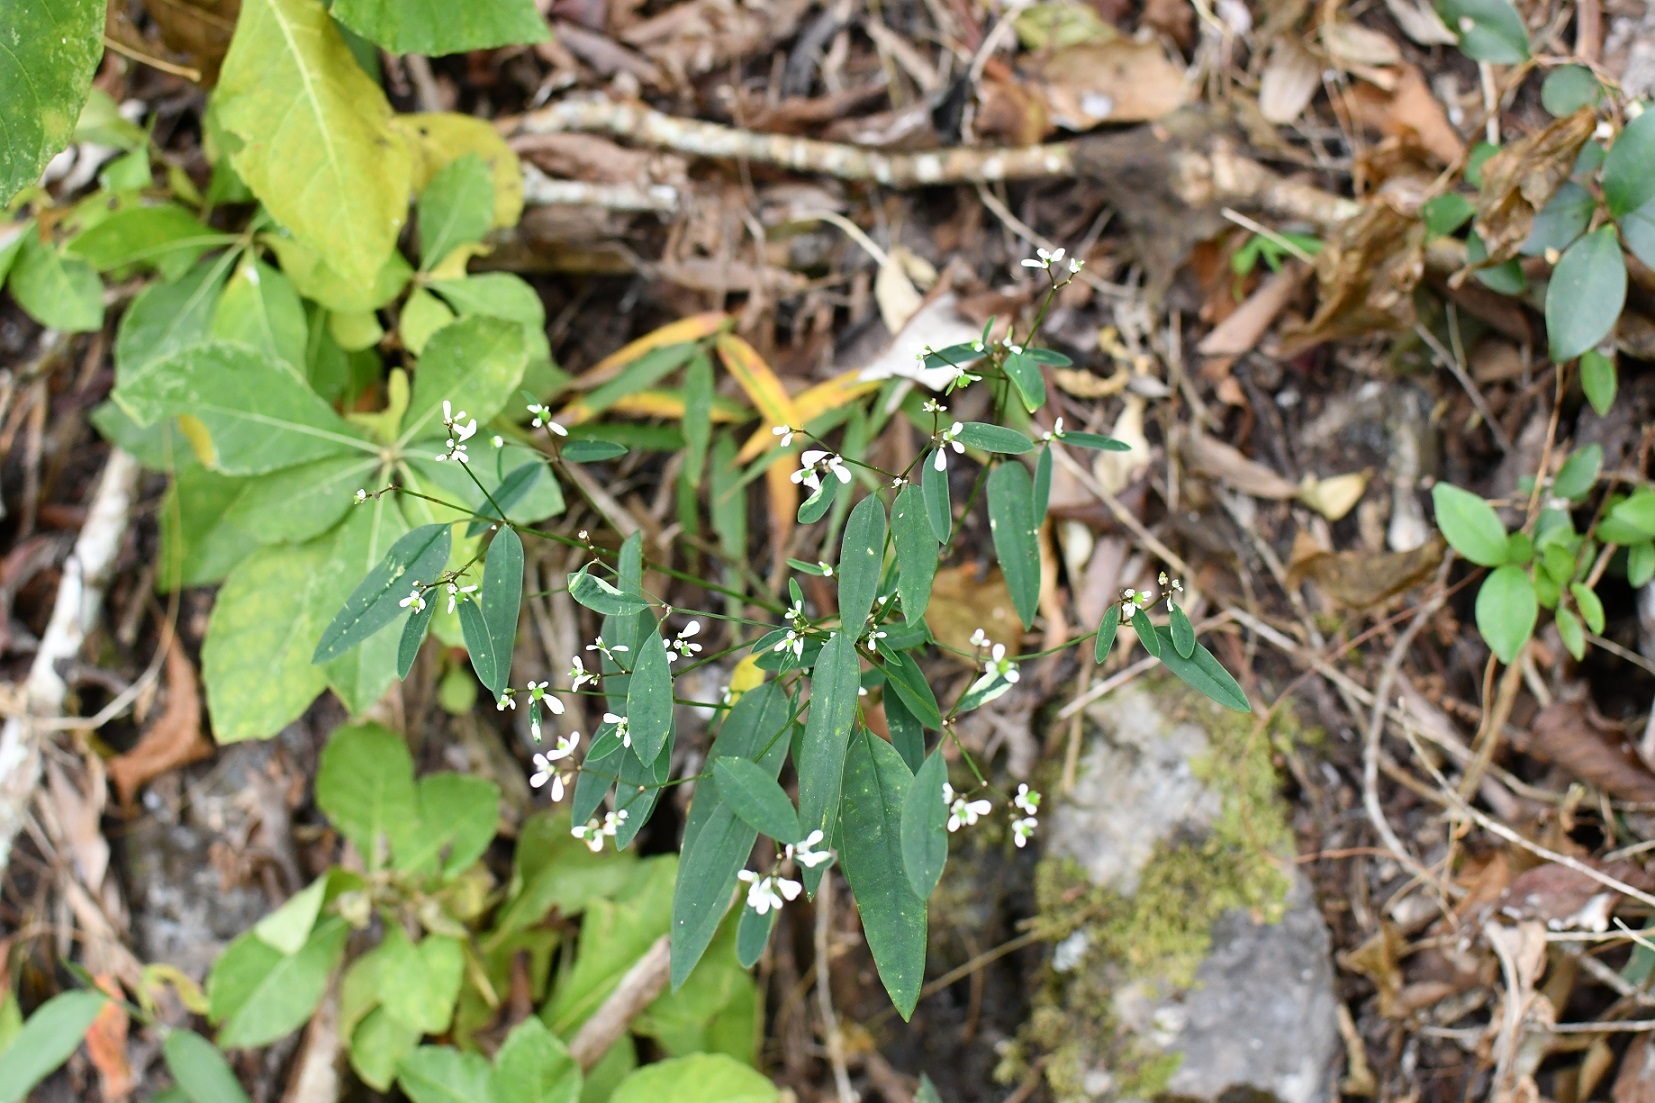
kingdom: Plantae
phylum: Tracheophyta
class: Magnoliopsida
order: Malpighiales
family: Euphorbiaceae
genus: Euphorbia
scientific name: Euphorbia ariensis
